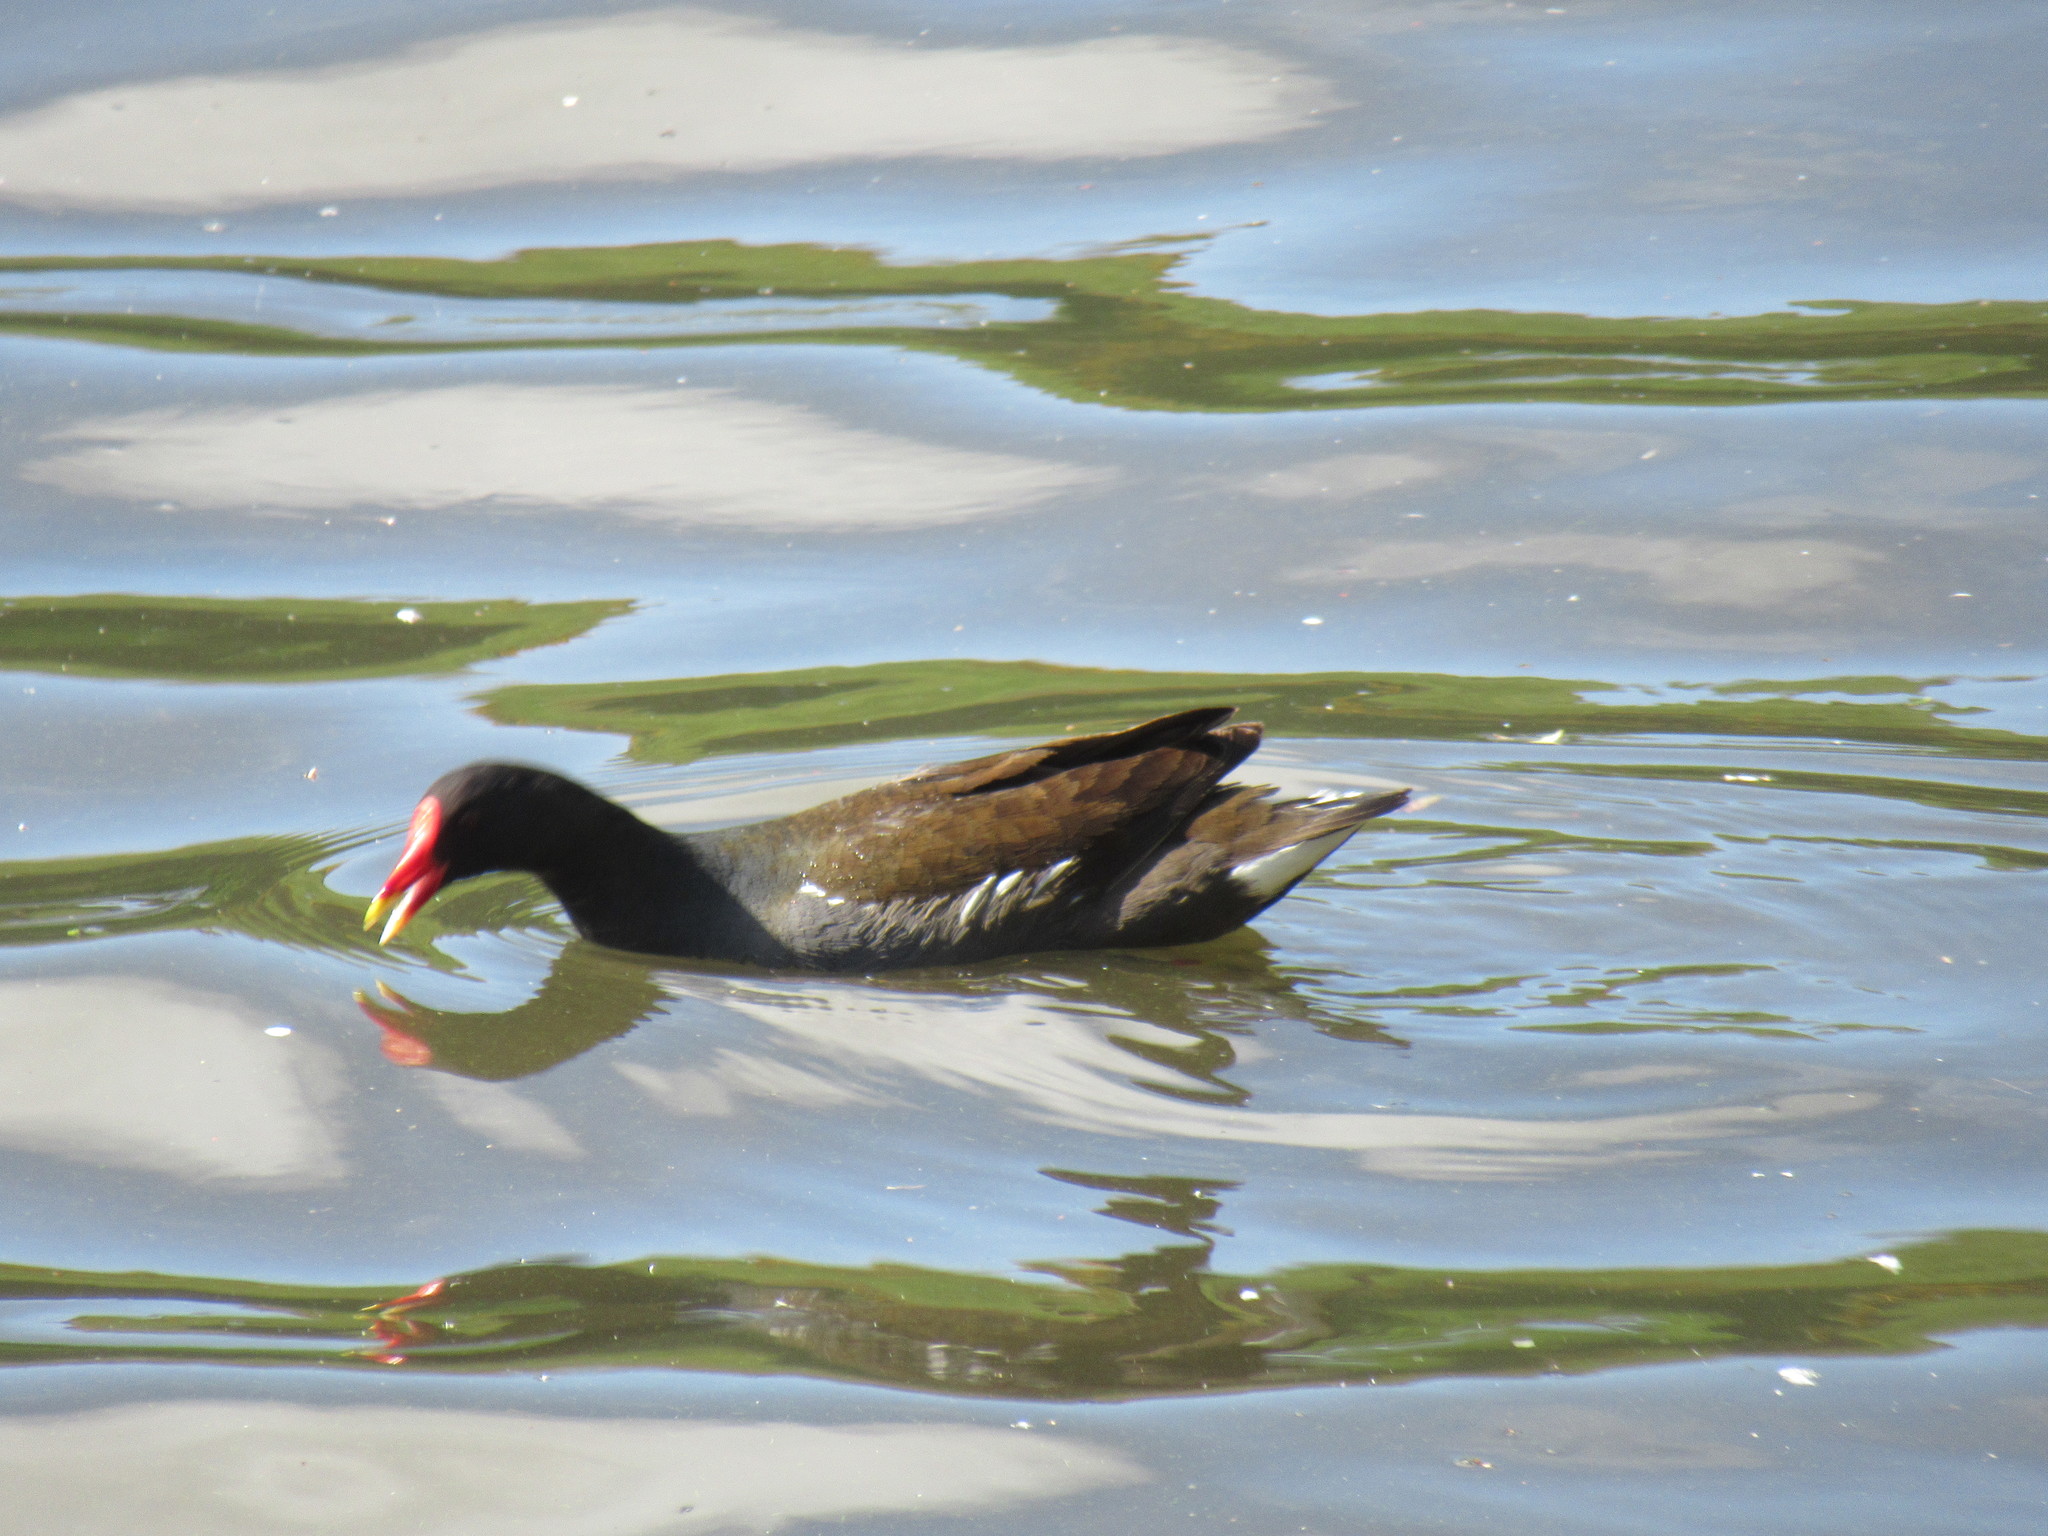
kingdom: Animalia
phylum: Chordata
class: Aves
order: Gruiformes
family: Rallidae
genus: Gallinula
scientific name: Gallinula chloropus
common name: Common moorhen
